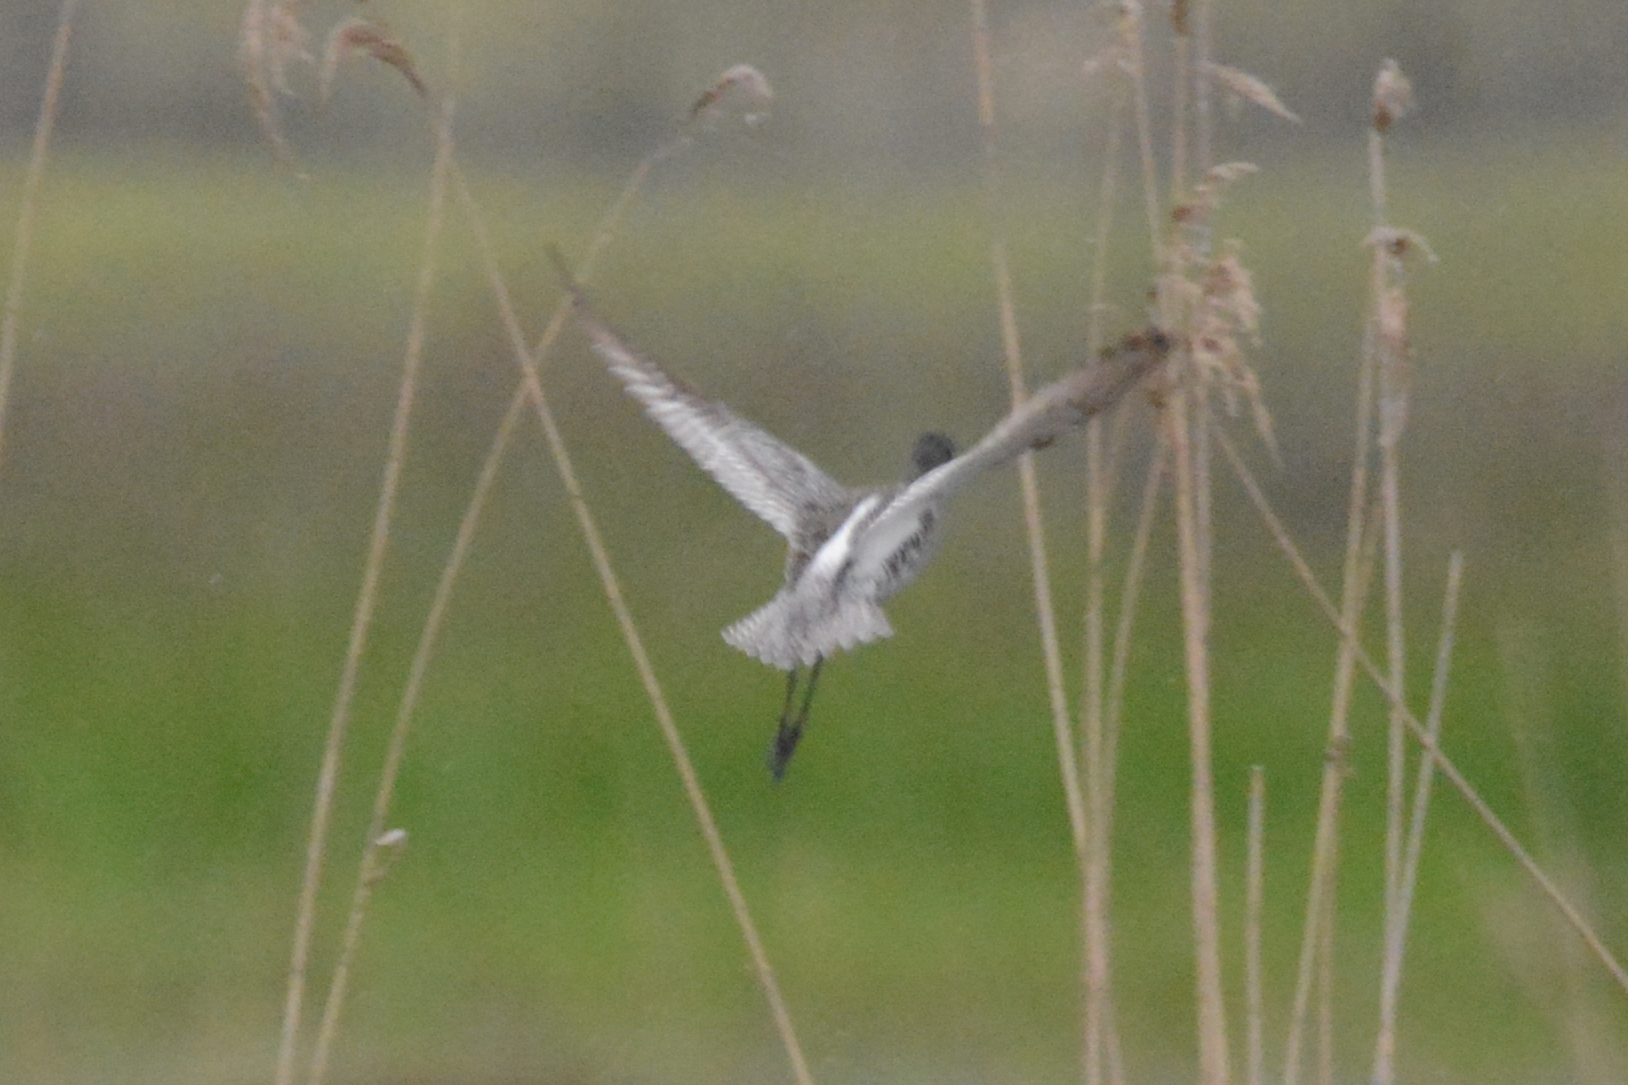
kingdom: Animalia
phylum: Chordata
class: Aves
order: Charadriiformes
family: Scolopacidae
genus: Tringa
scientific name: Tringa erythropus
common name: Spotted redshank
